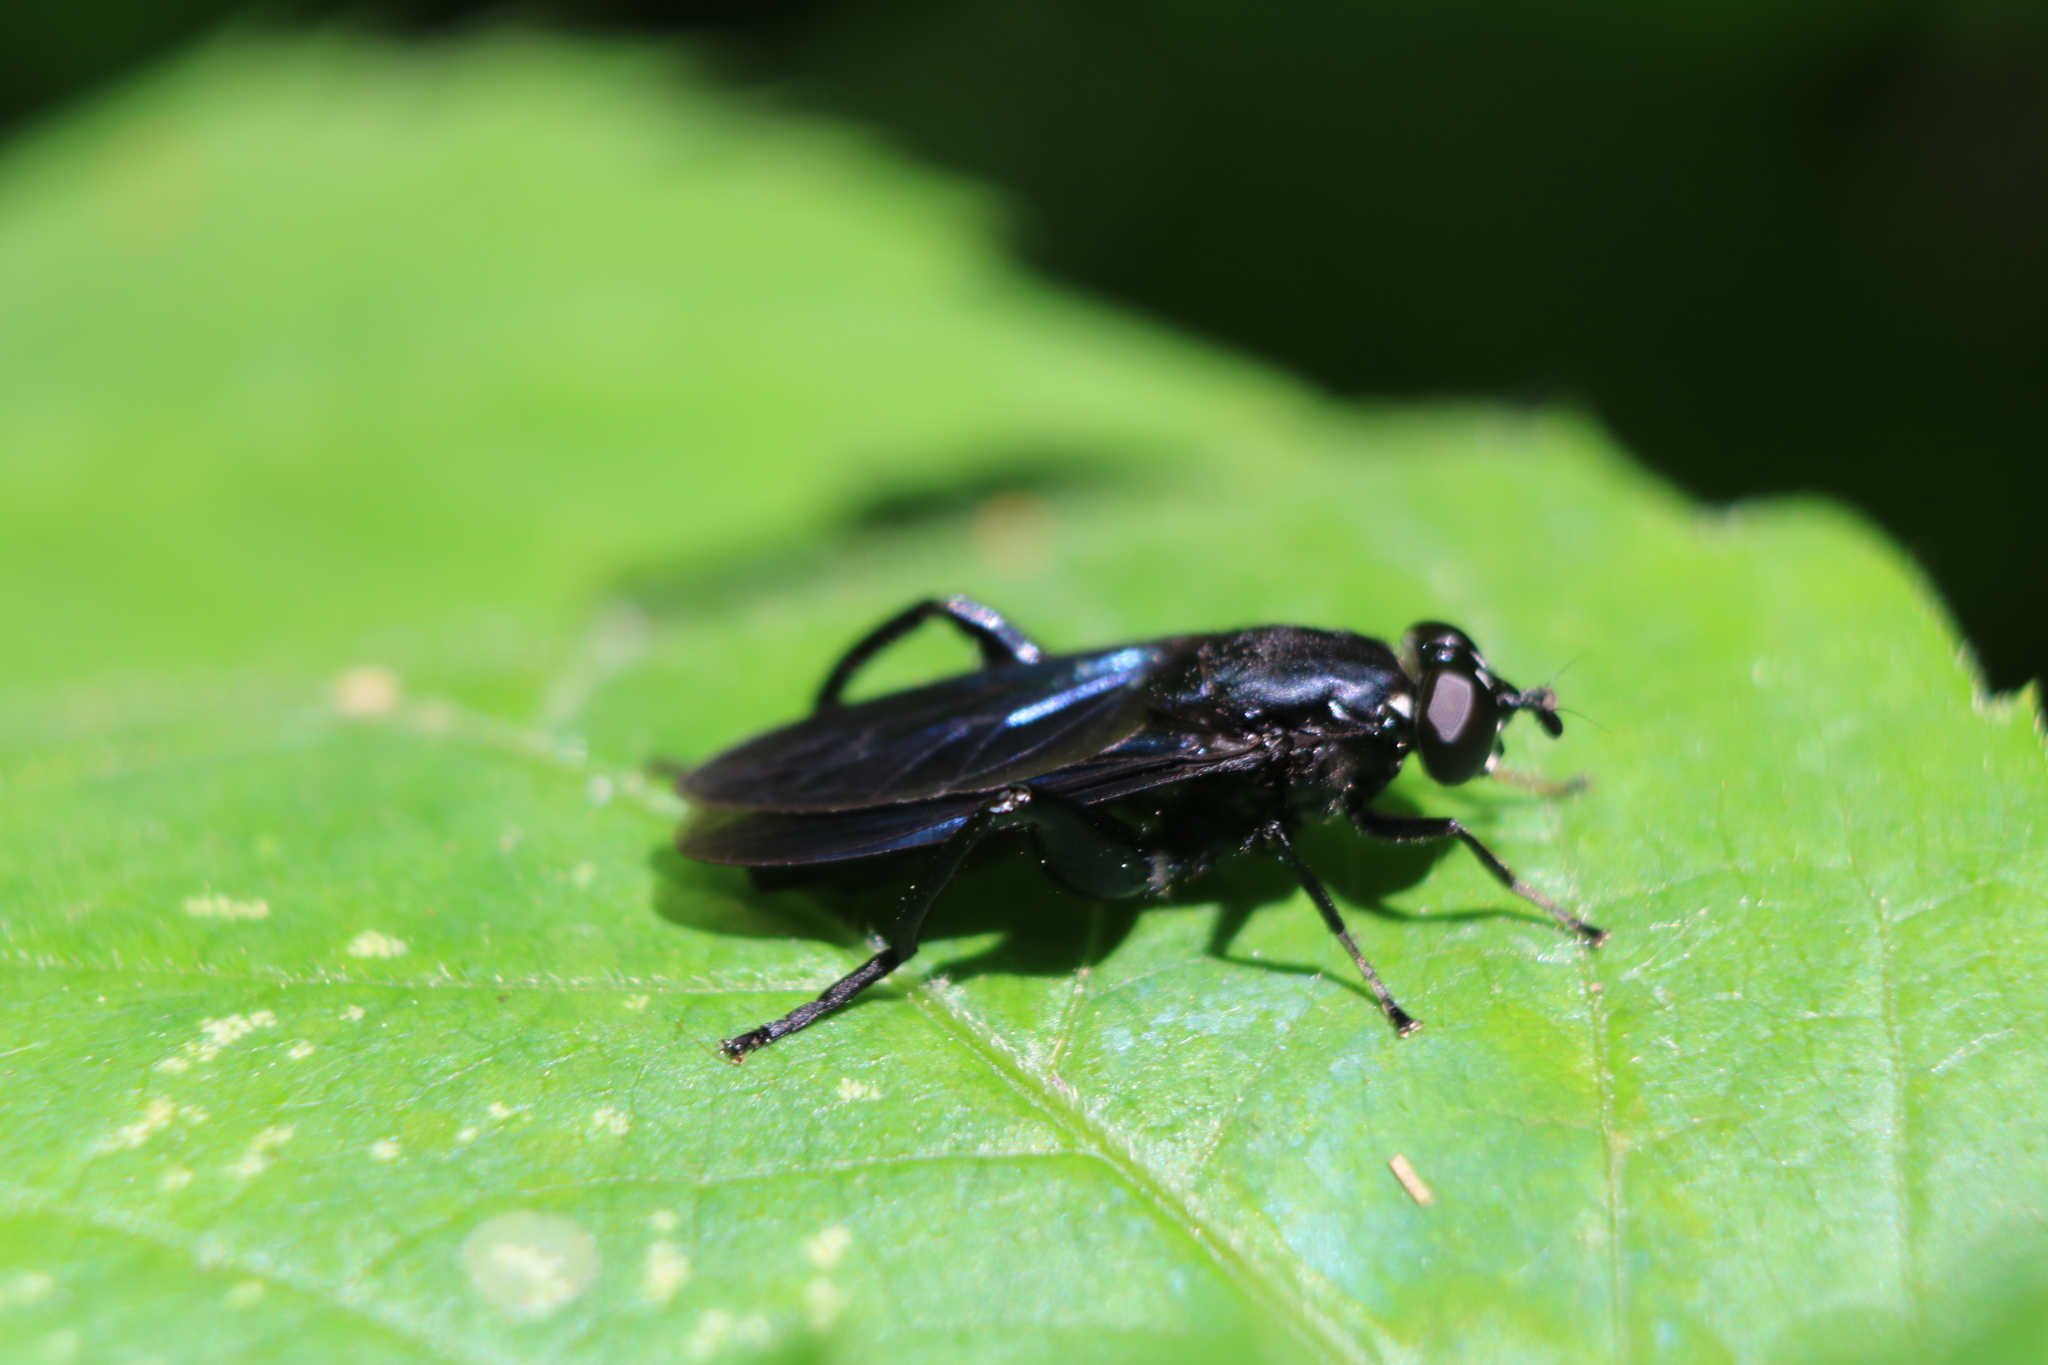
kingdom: Animalia
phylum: Arthropoda
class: Insecta
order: Diptera
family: Syrphidae
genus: Chalcosyrphus
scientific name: Chalcosyrphus chalybeus
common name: Violet leafwalker
